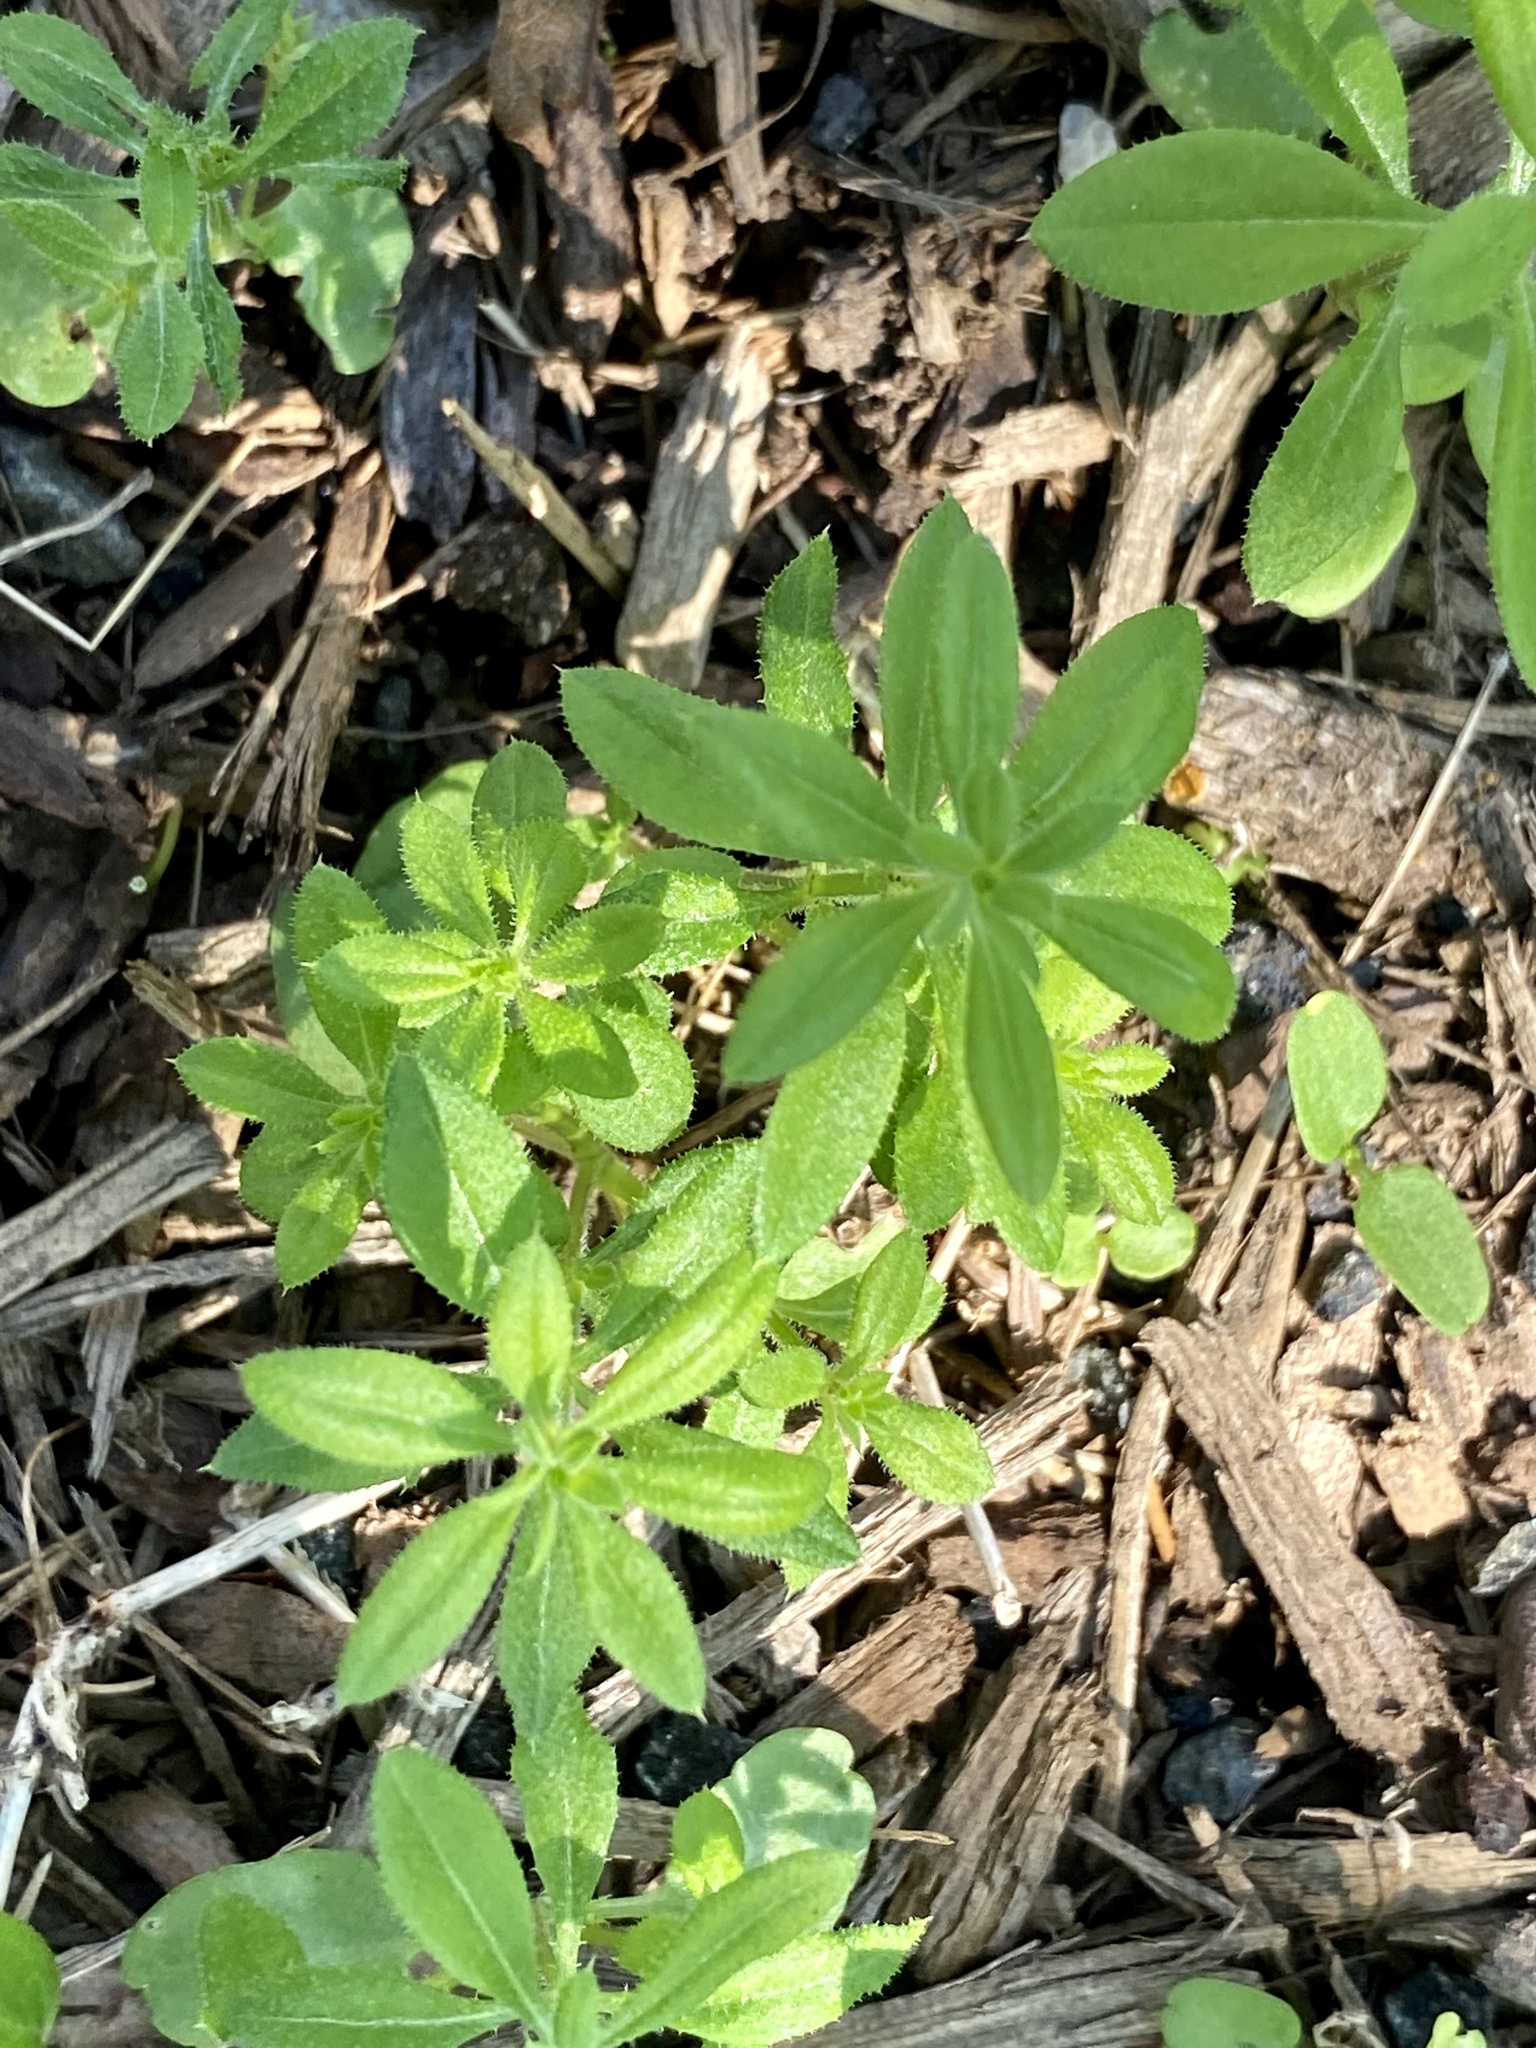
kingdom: Plantae
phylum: Tracheophyta
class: Magnoliopsida
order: Gentianales
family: Rubiaceae
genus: Galium
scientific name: Galium aparine
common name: Cleavers
